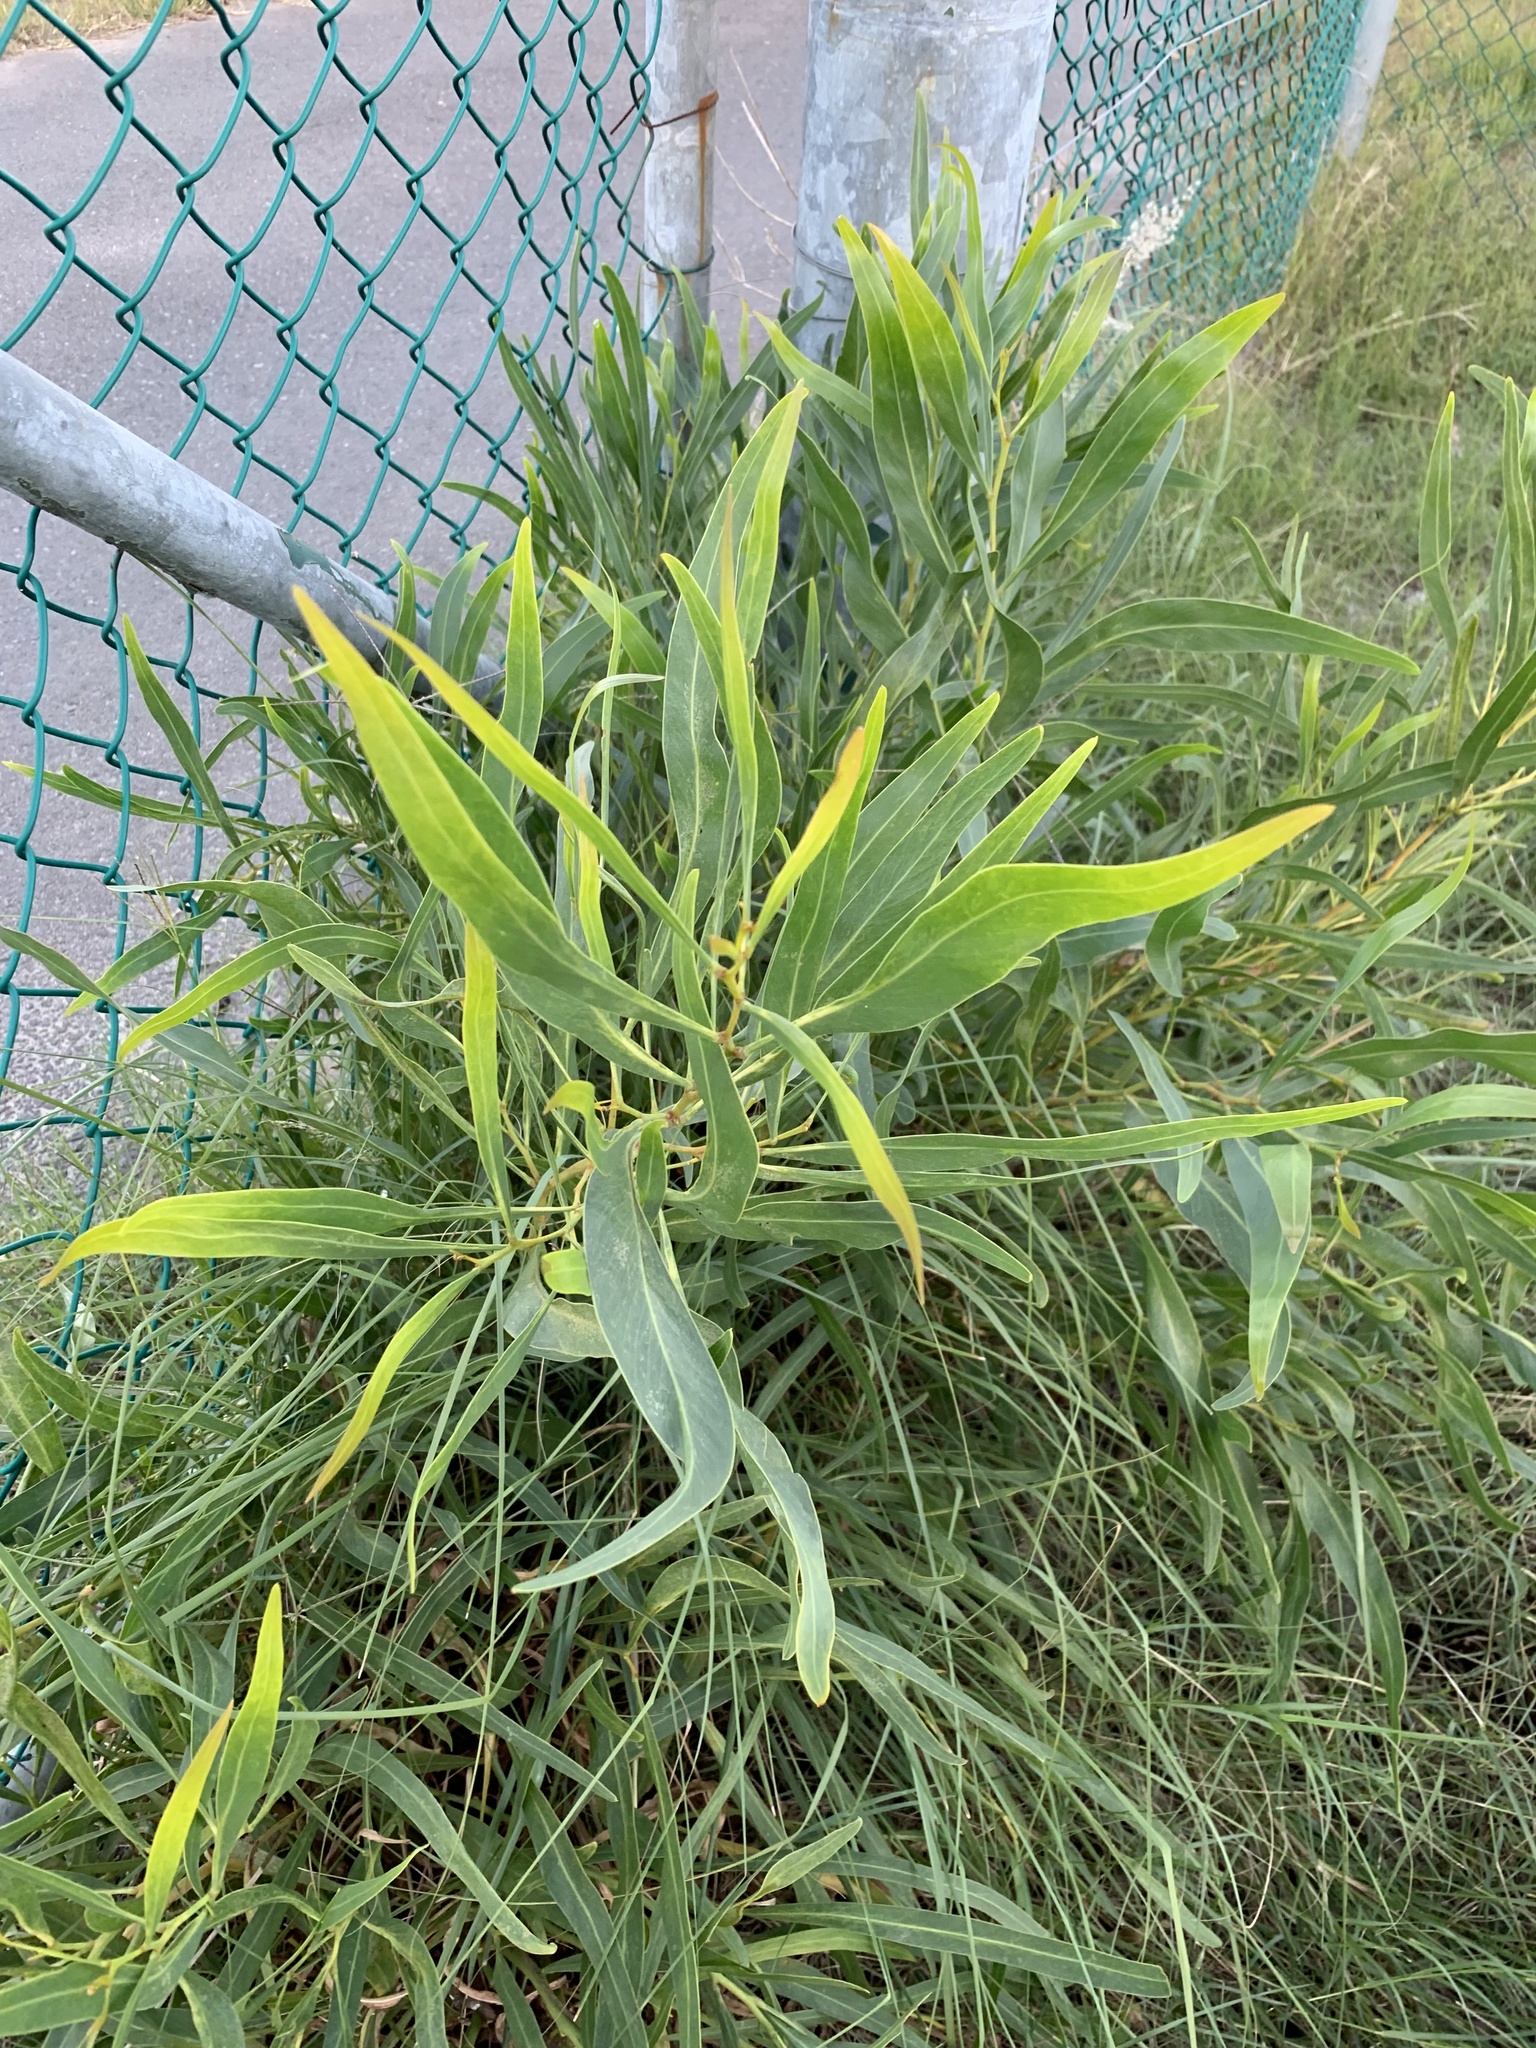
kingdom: Plantae
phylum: Tracheophyta
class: Magnoliopsida
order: Fabales
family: Fabaceae
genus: Acacia
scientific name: Acacia saligna
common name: Orange wattle
